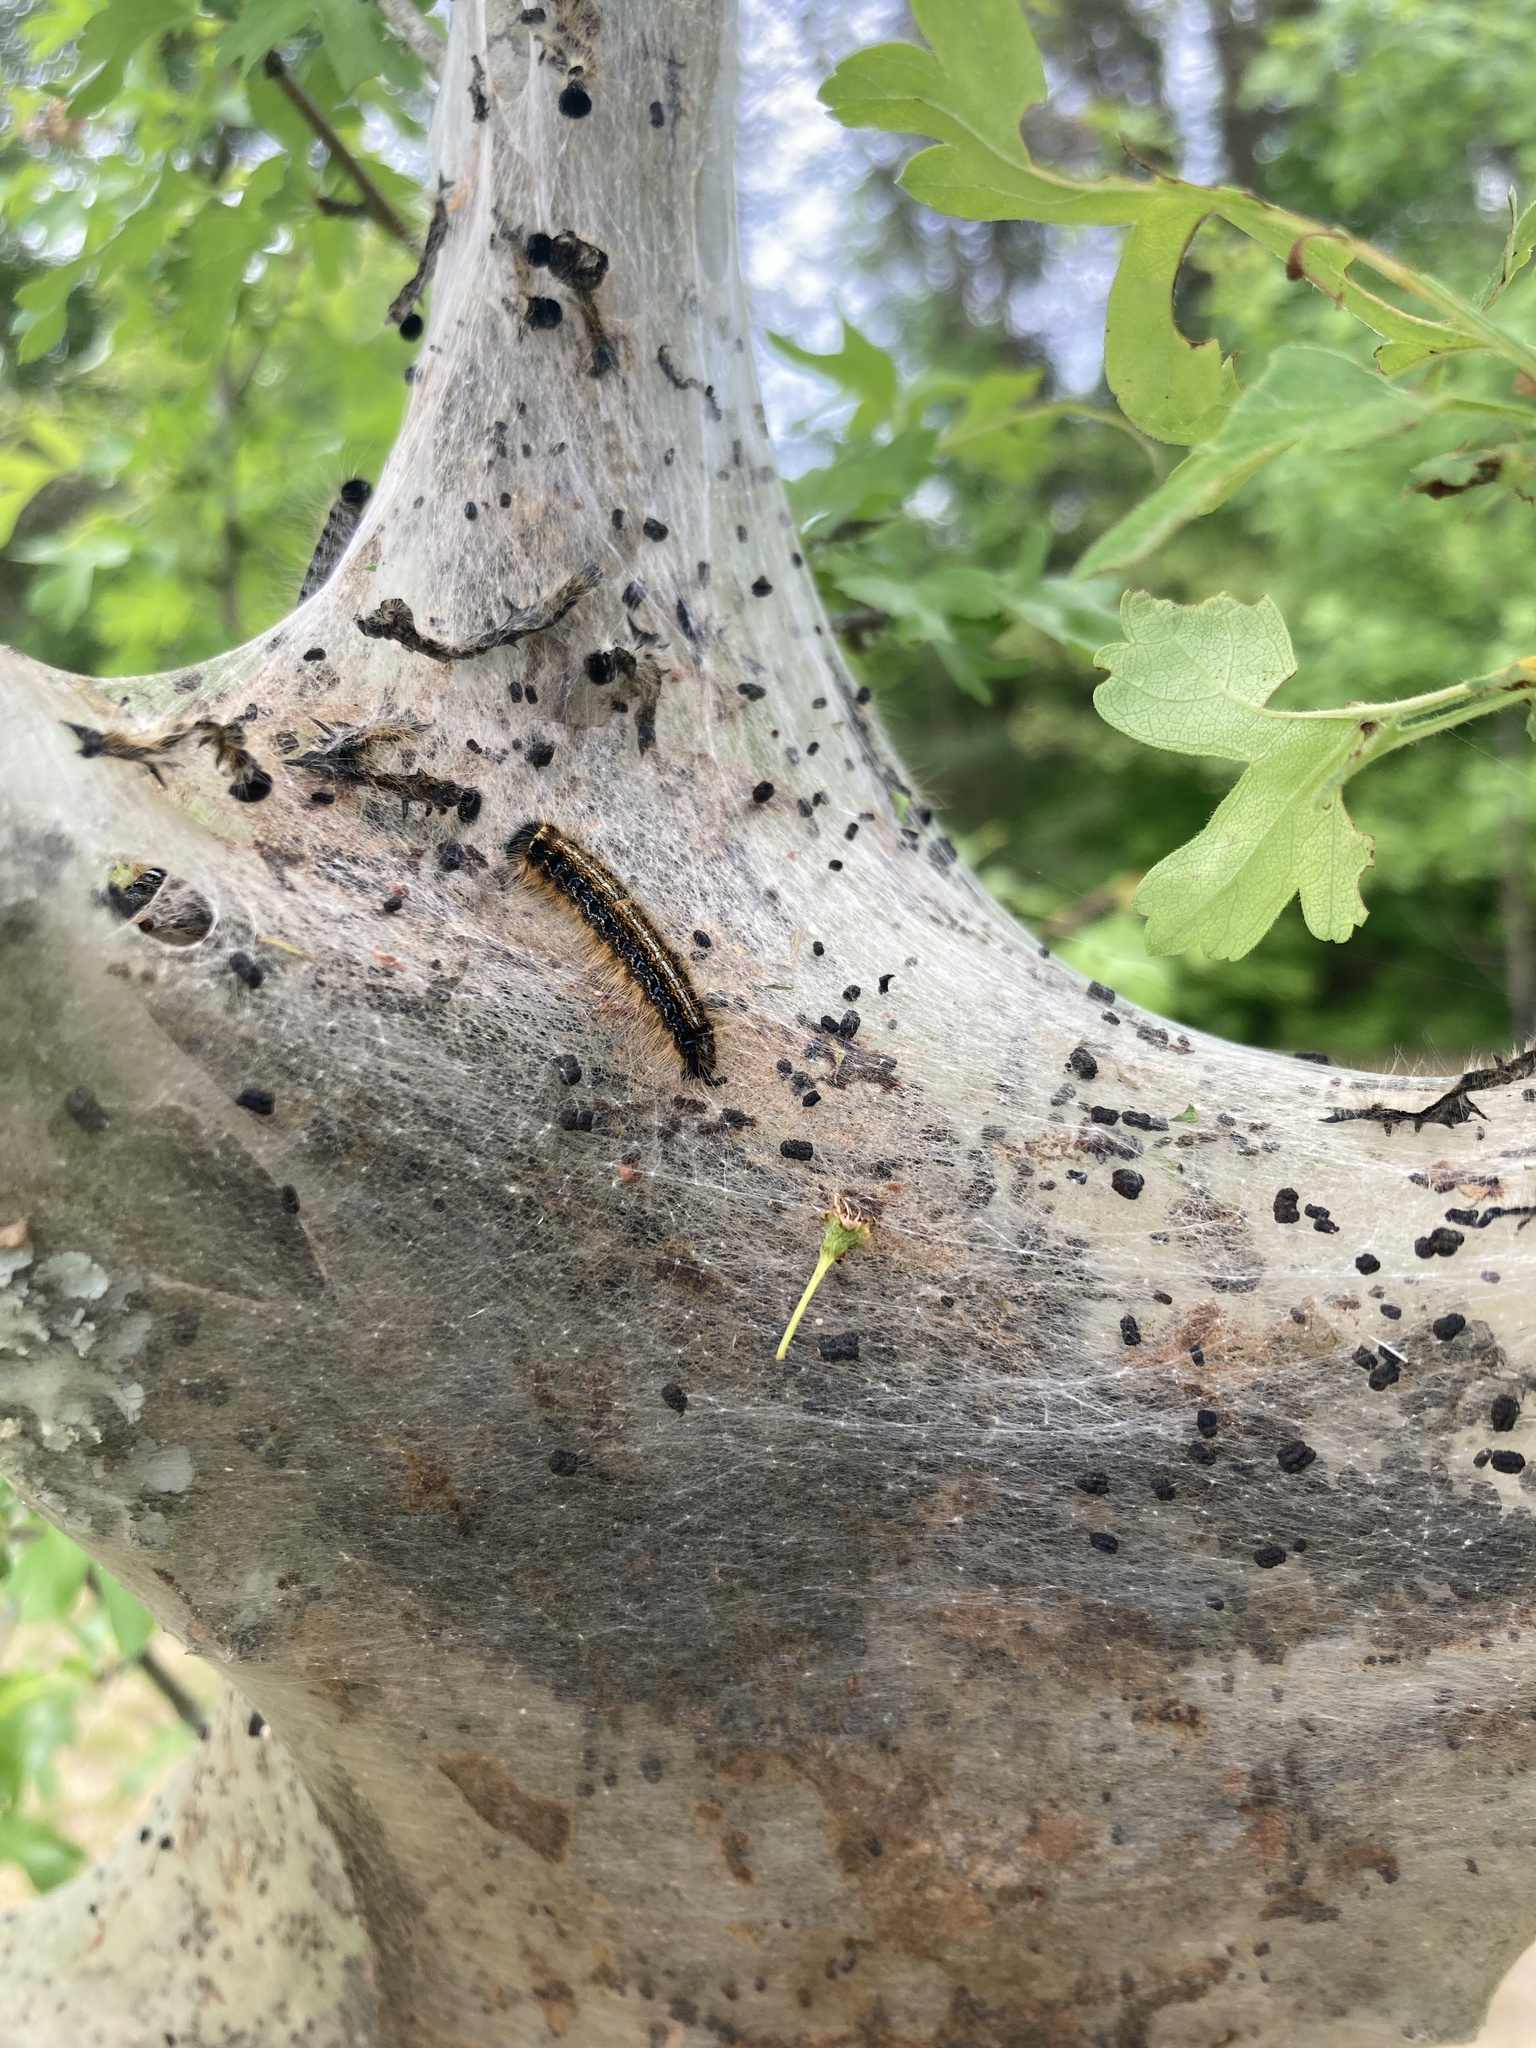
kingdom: Animalia
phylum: Arthropoda
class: Insecta
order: Lepidoptera
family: Lasiocampidae
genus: Malacosoma
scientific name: Malacosoma americana
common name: Eastern tent caterpillar moth
